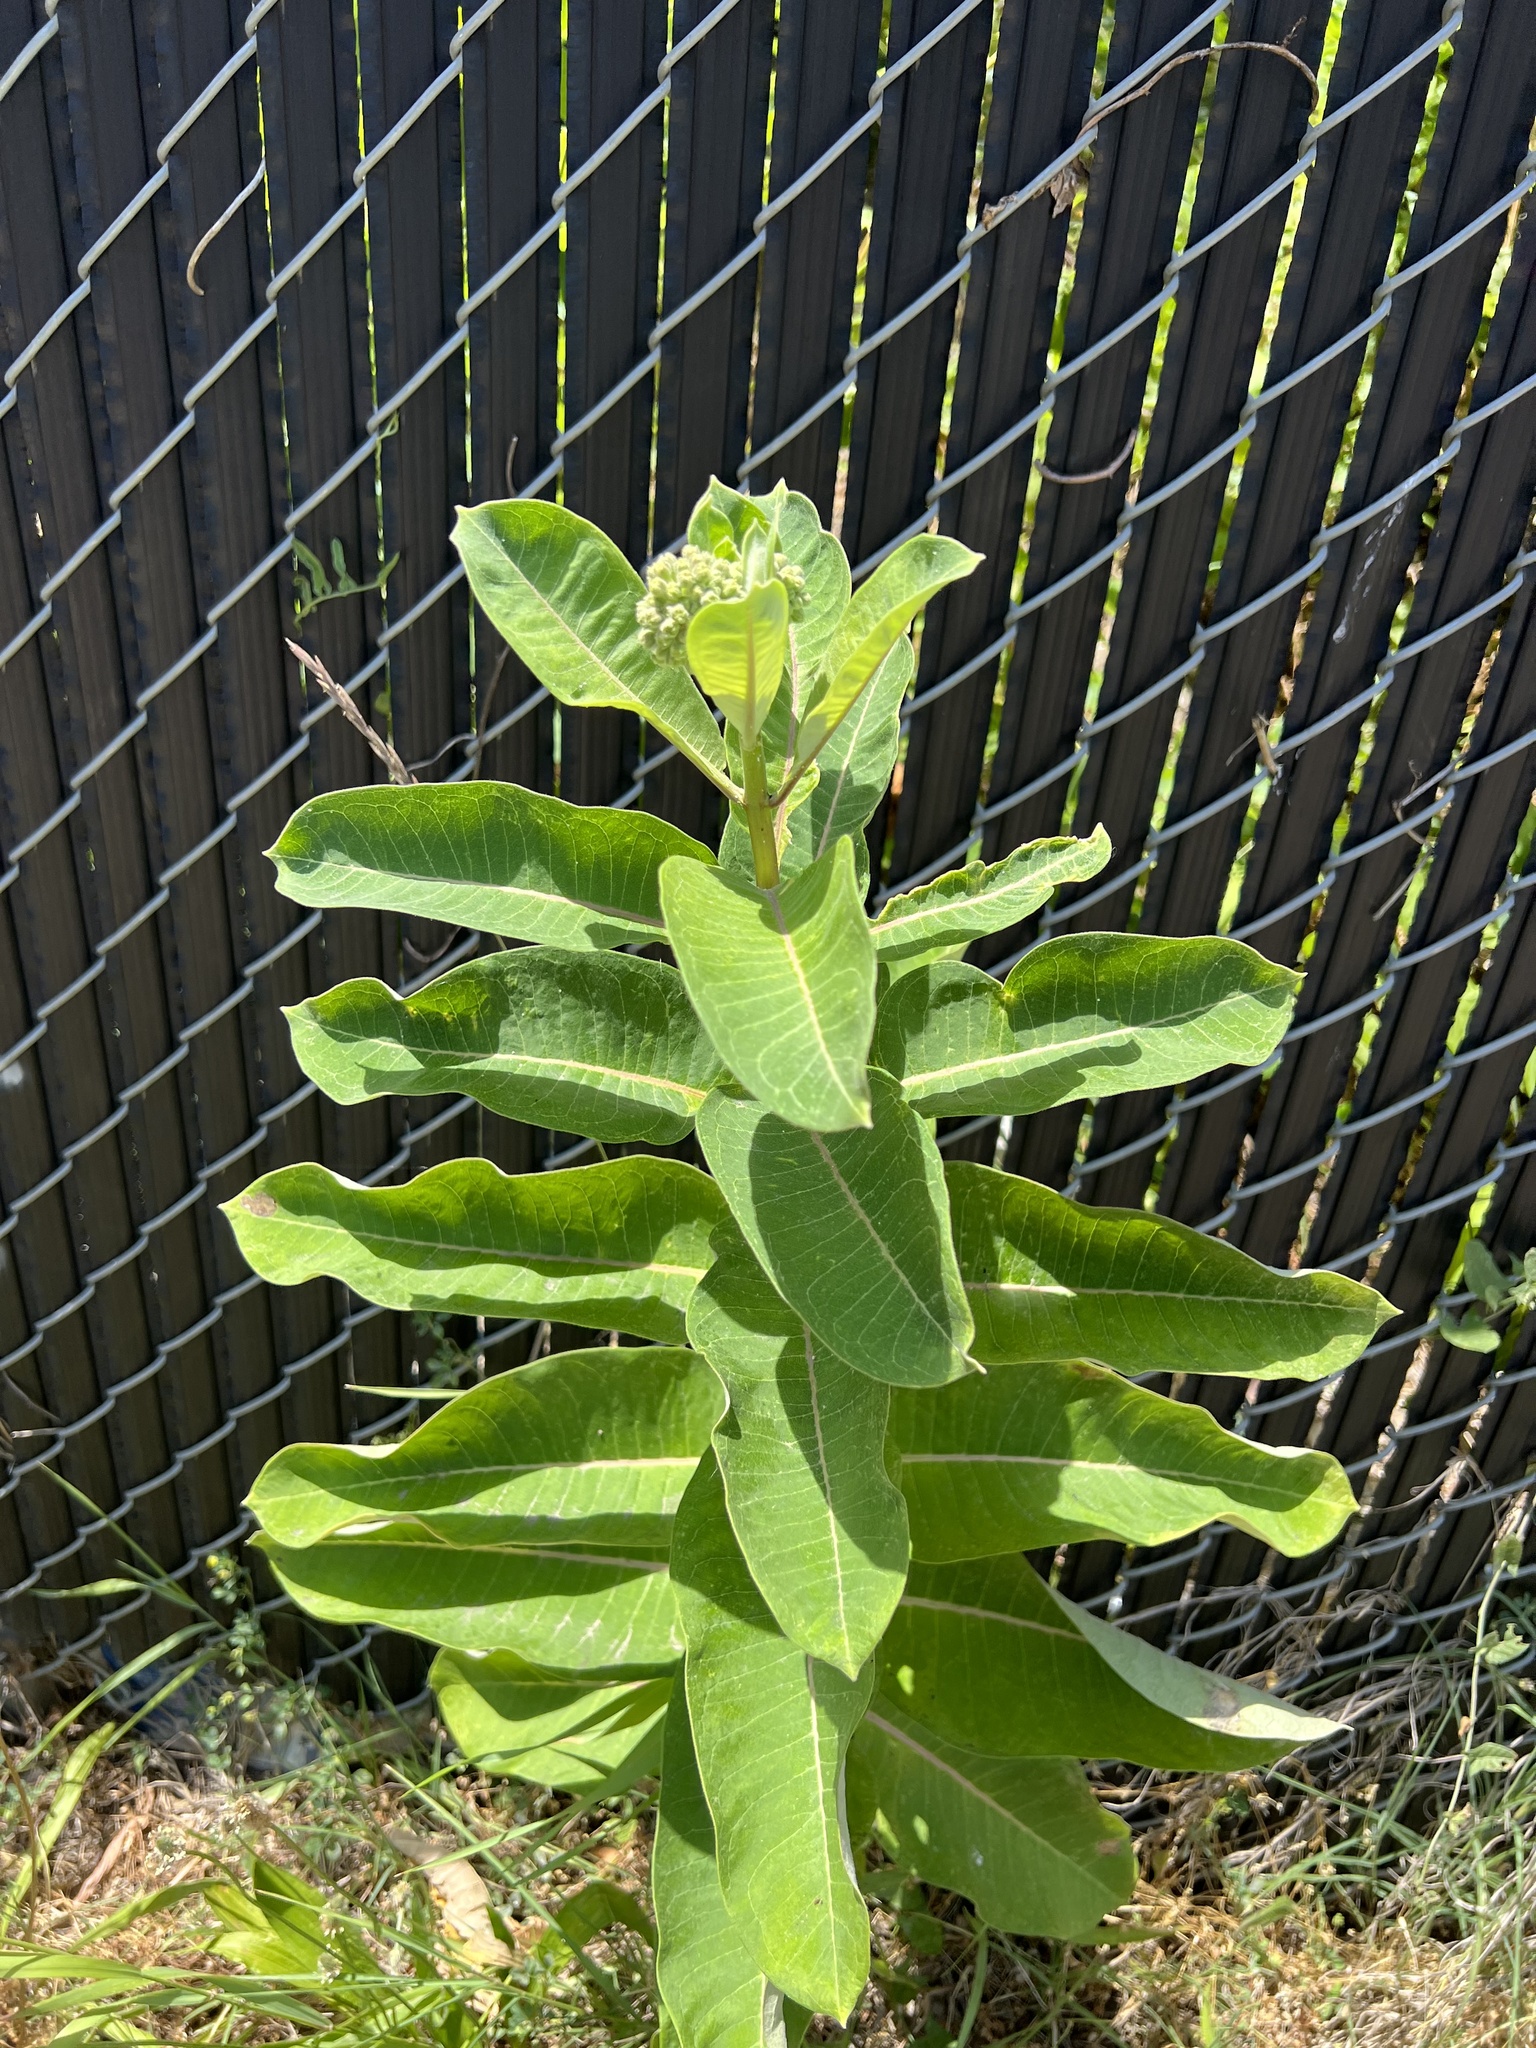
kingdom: Plantae
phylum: Tracheophyta
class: Magnoliopsida
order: Gentianales
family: Apocynaceae
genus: Asclepias
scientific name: Asclepias syriaca
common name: Common milkweed
